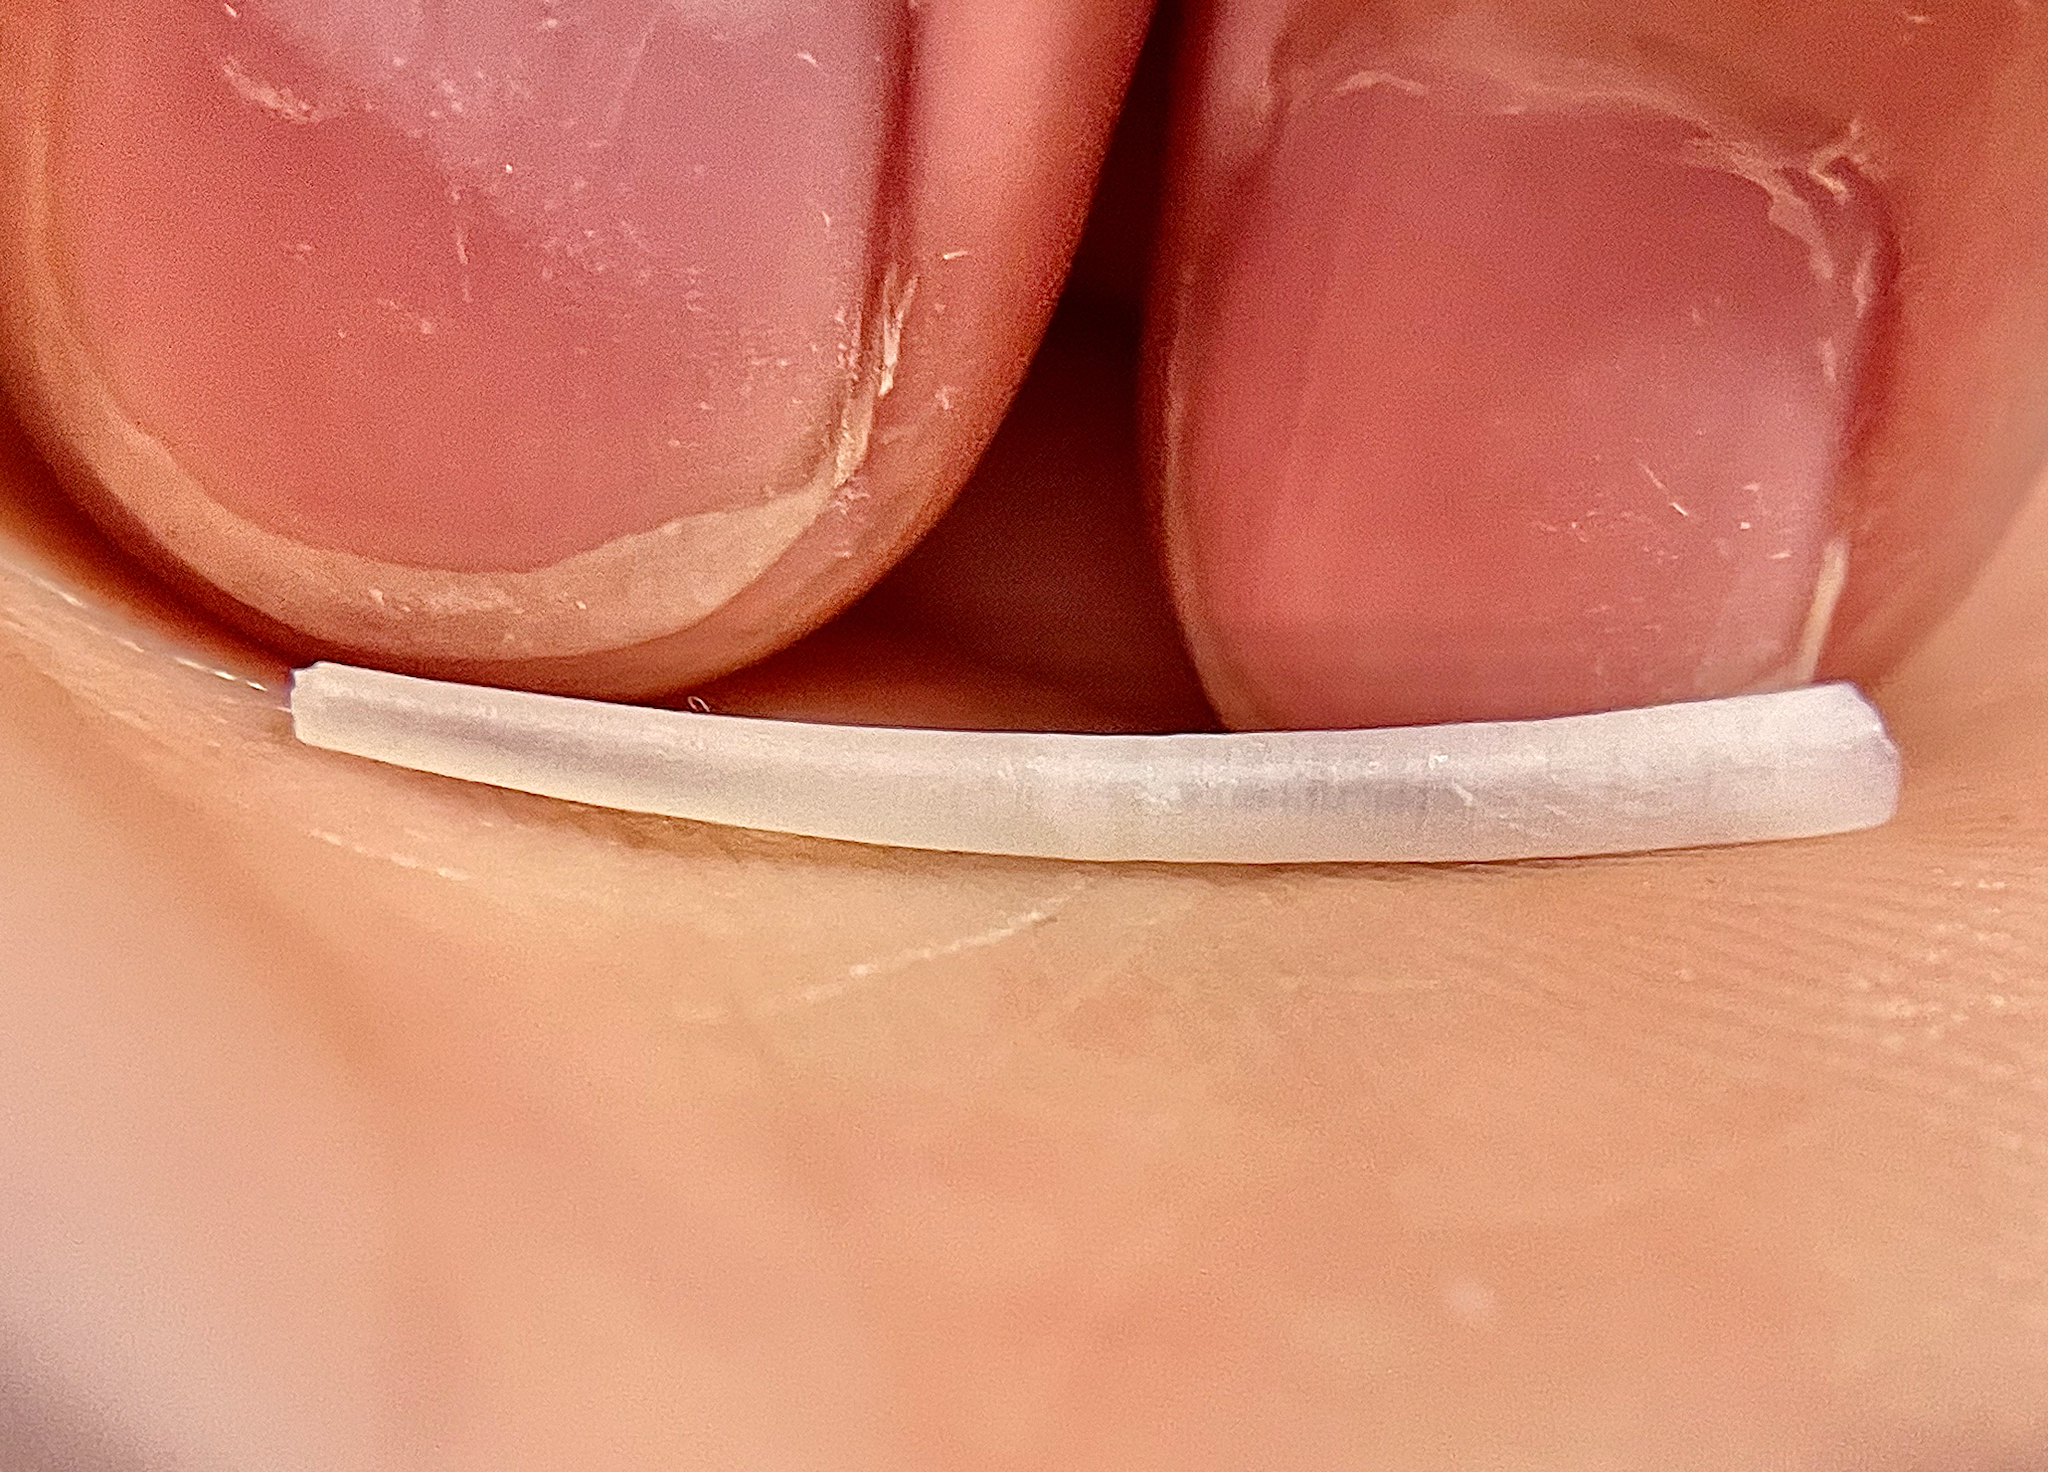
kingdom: Animalia
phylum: Mollusca
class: Scaphopoda
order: Dentaliida
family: Dentaliidae
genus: Graptacme
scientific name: Graptacme eborea
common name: Ivory tuskshell
